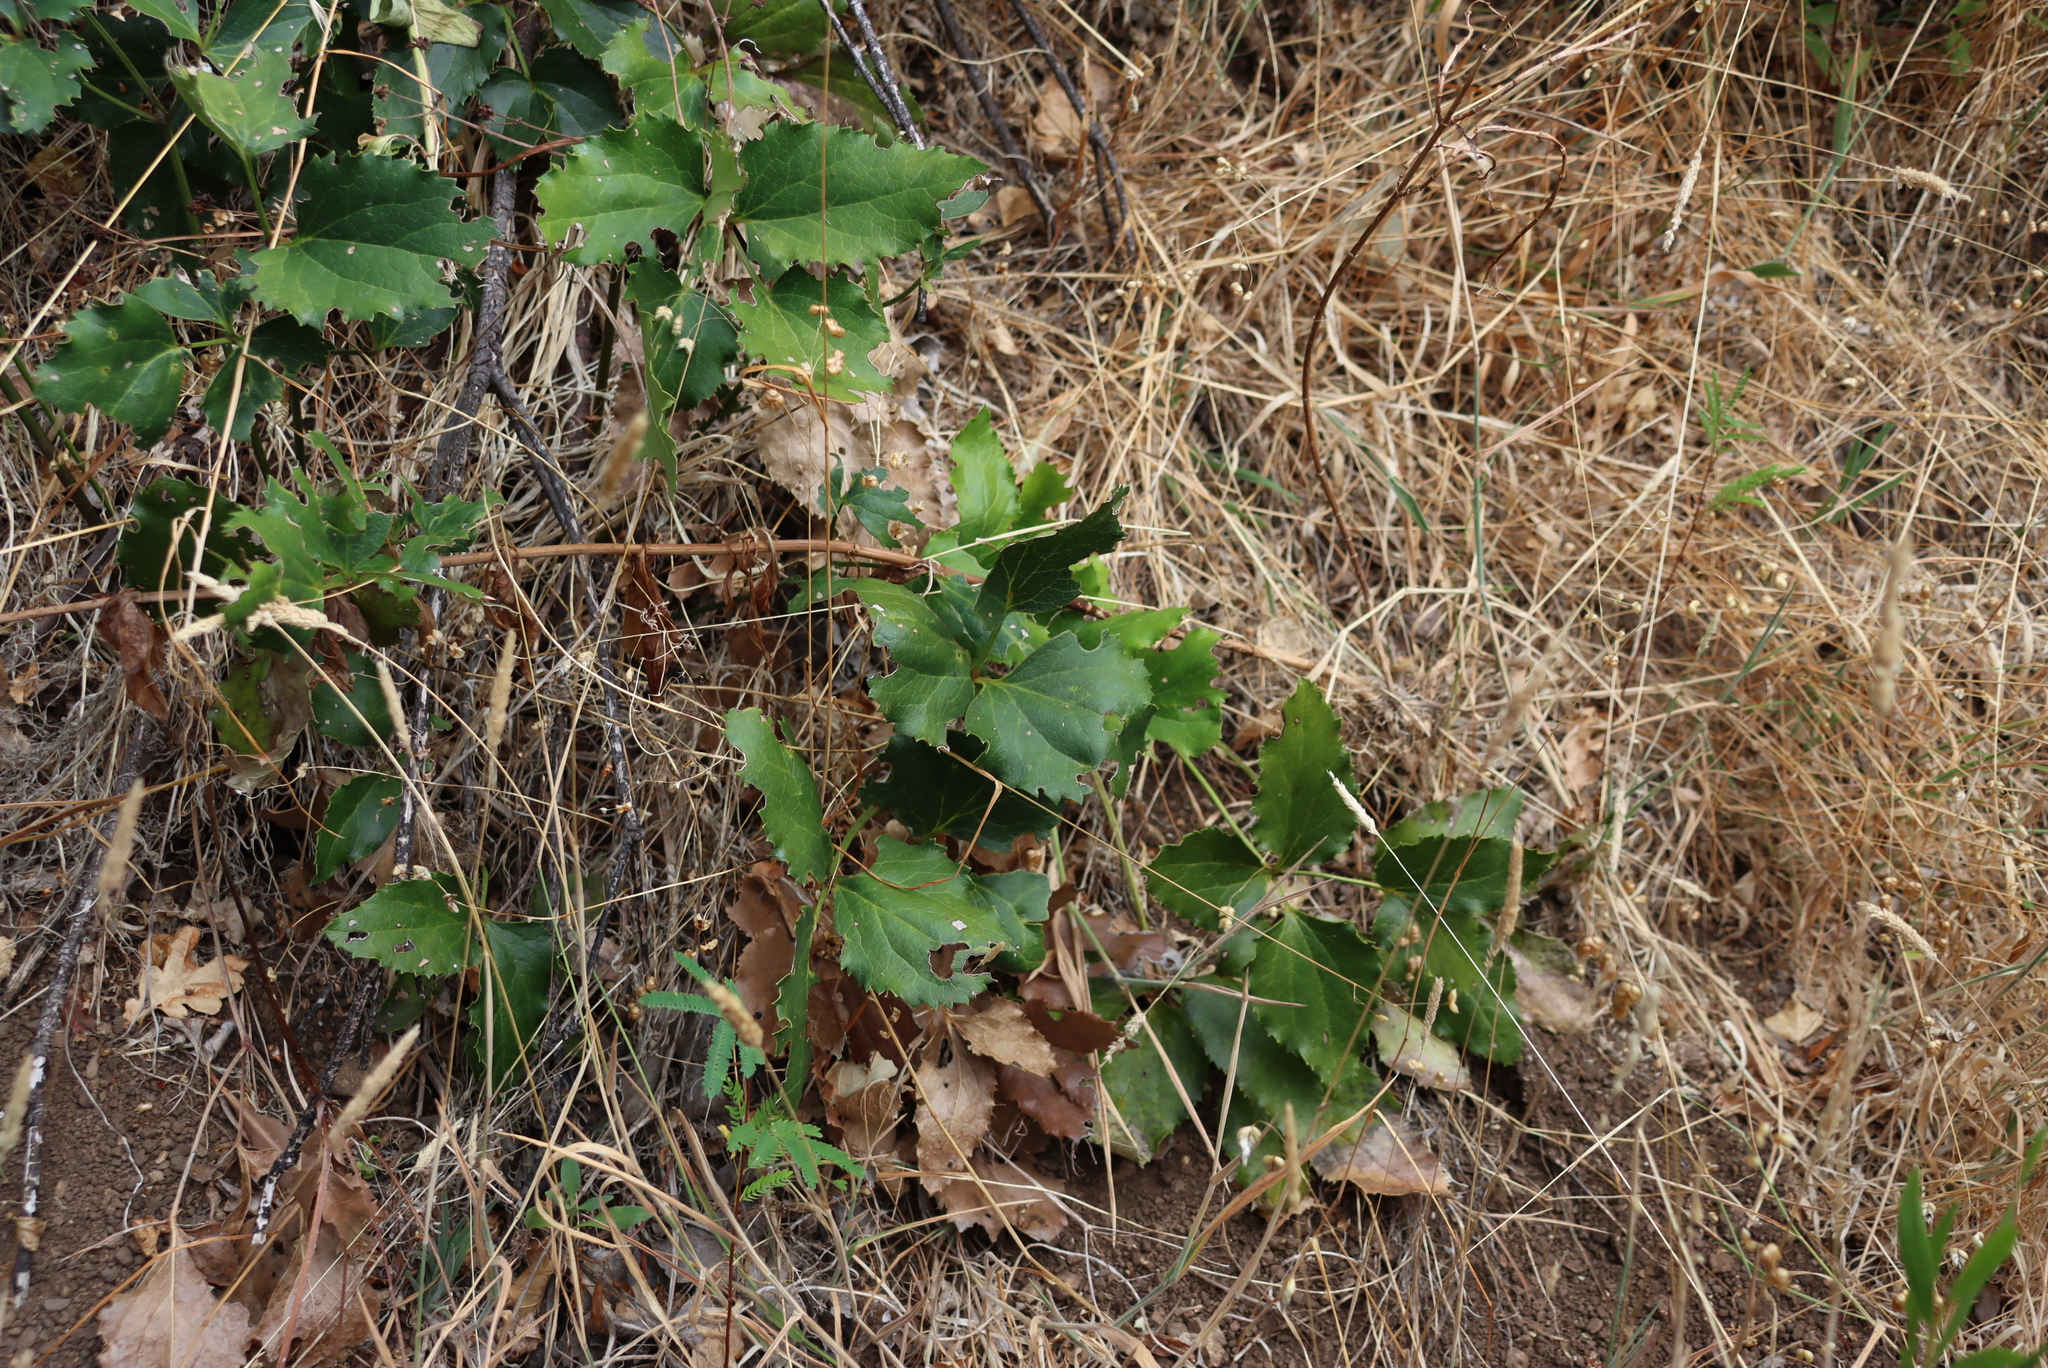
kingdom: Plantae
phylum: Tracheophyta
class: Magnoliopsida
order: Ranunculales
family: Ranunculaceae
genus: Knowltonia
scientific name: Knowltonia vesicatoria
